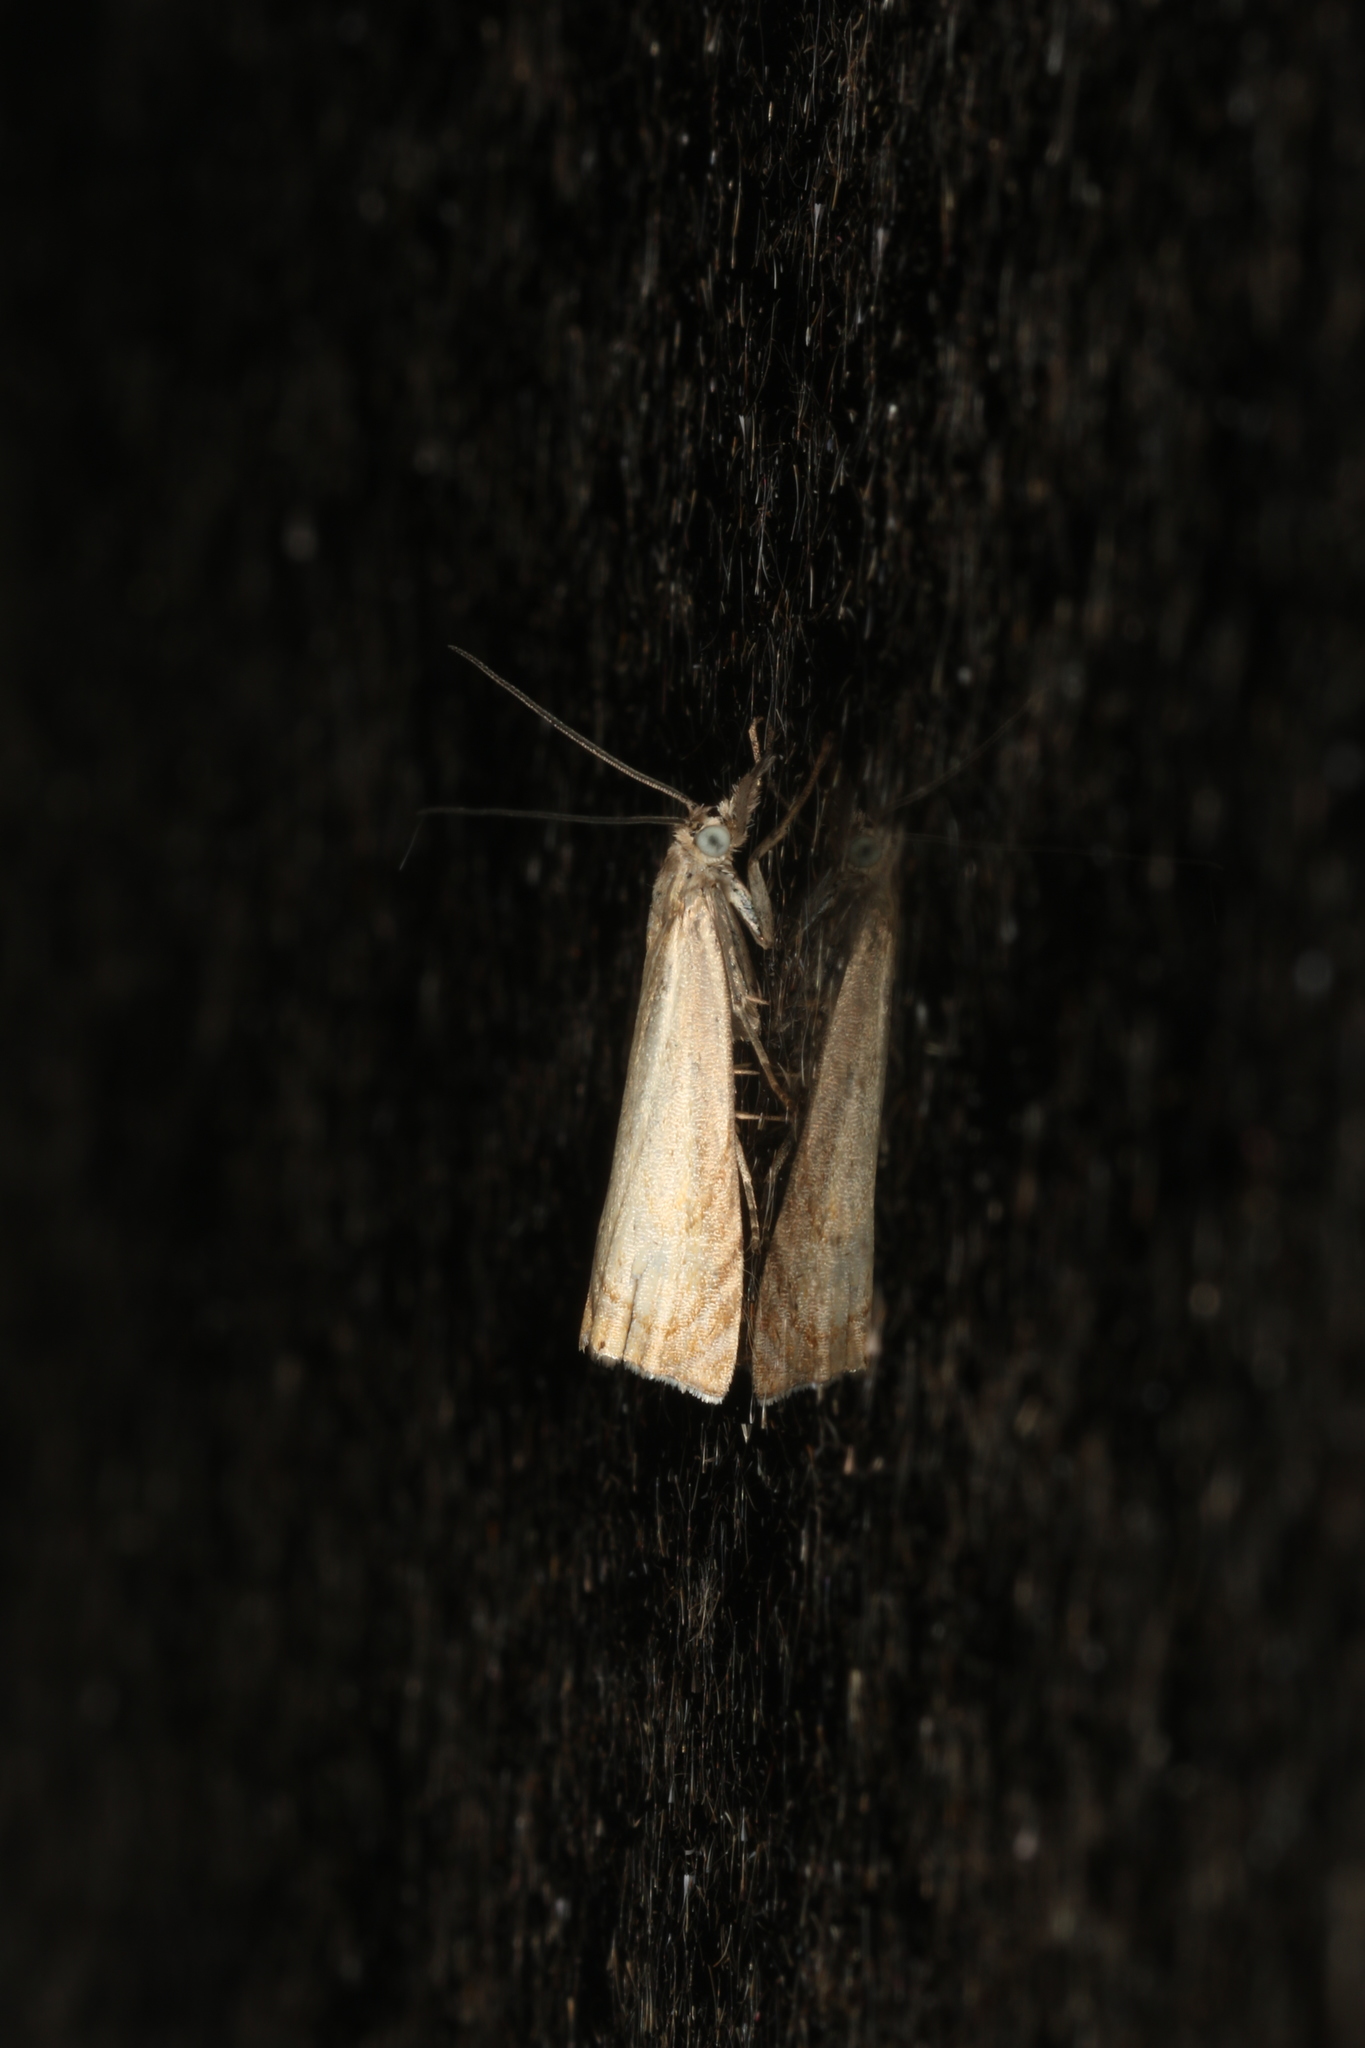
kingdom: Animalia
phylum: Arthropoda
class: Insecta
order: Lepidoptera
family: Crambidae
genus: Chrysoteuchia
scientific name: Chrysoteuchia culmella
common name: Garden grass-veneer
